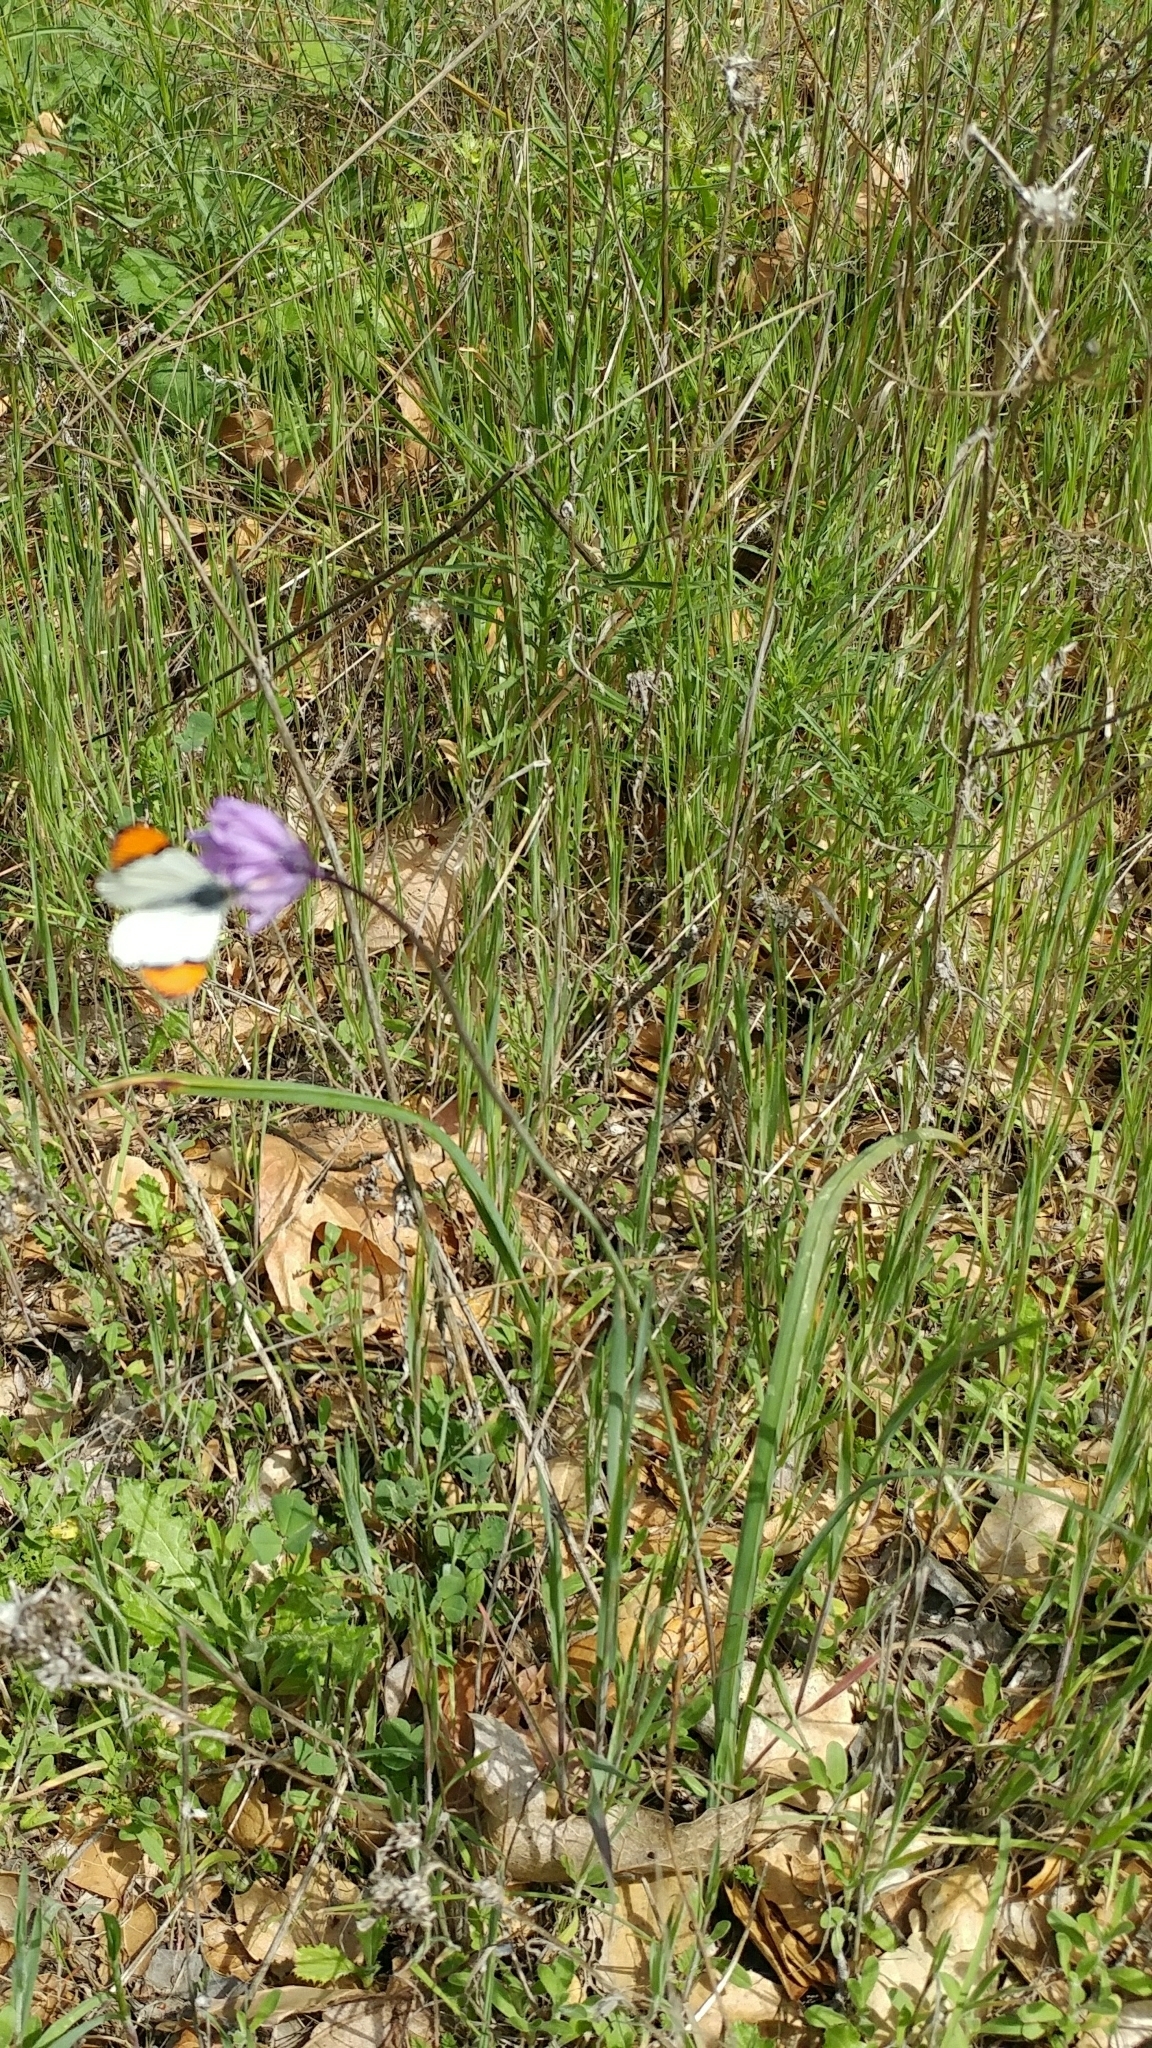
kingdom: Plantae
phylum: Tracheophyta
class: Liliopsida
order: Asparagales
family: Asparagaceae
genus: Dipterostemon
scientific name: Dipterostemon capitatus
